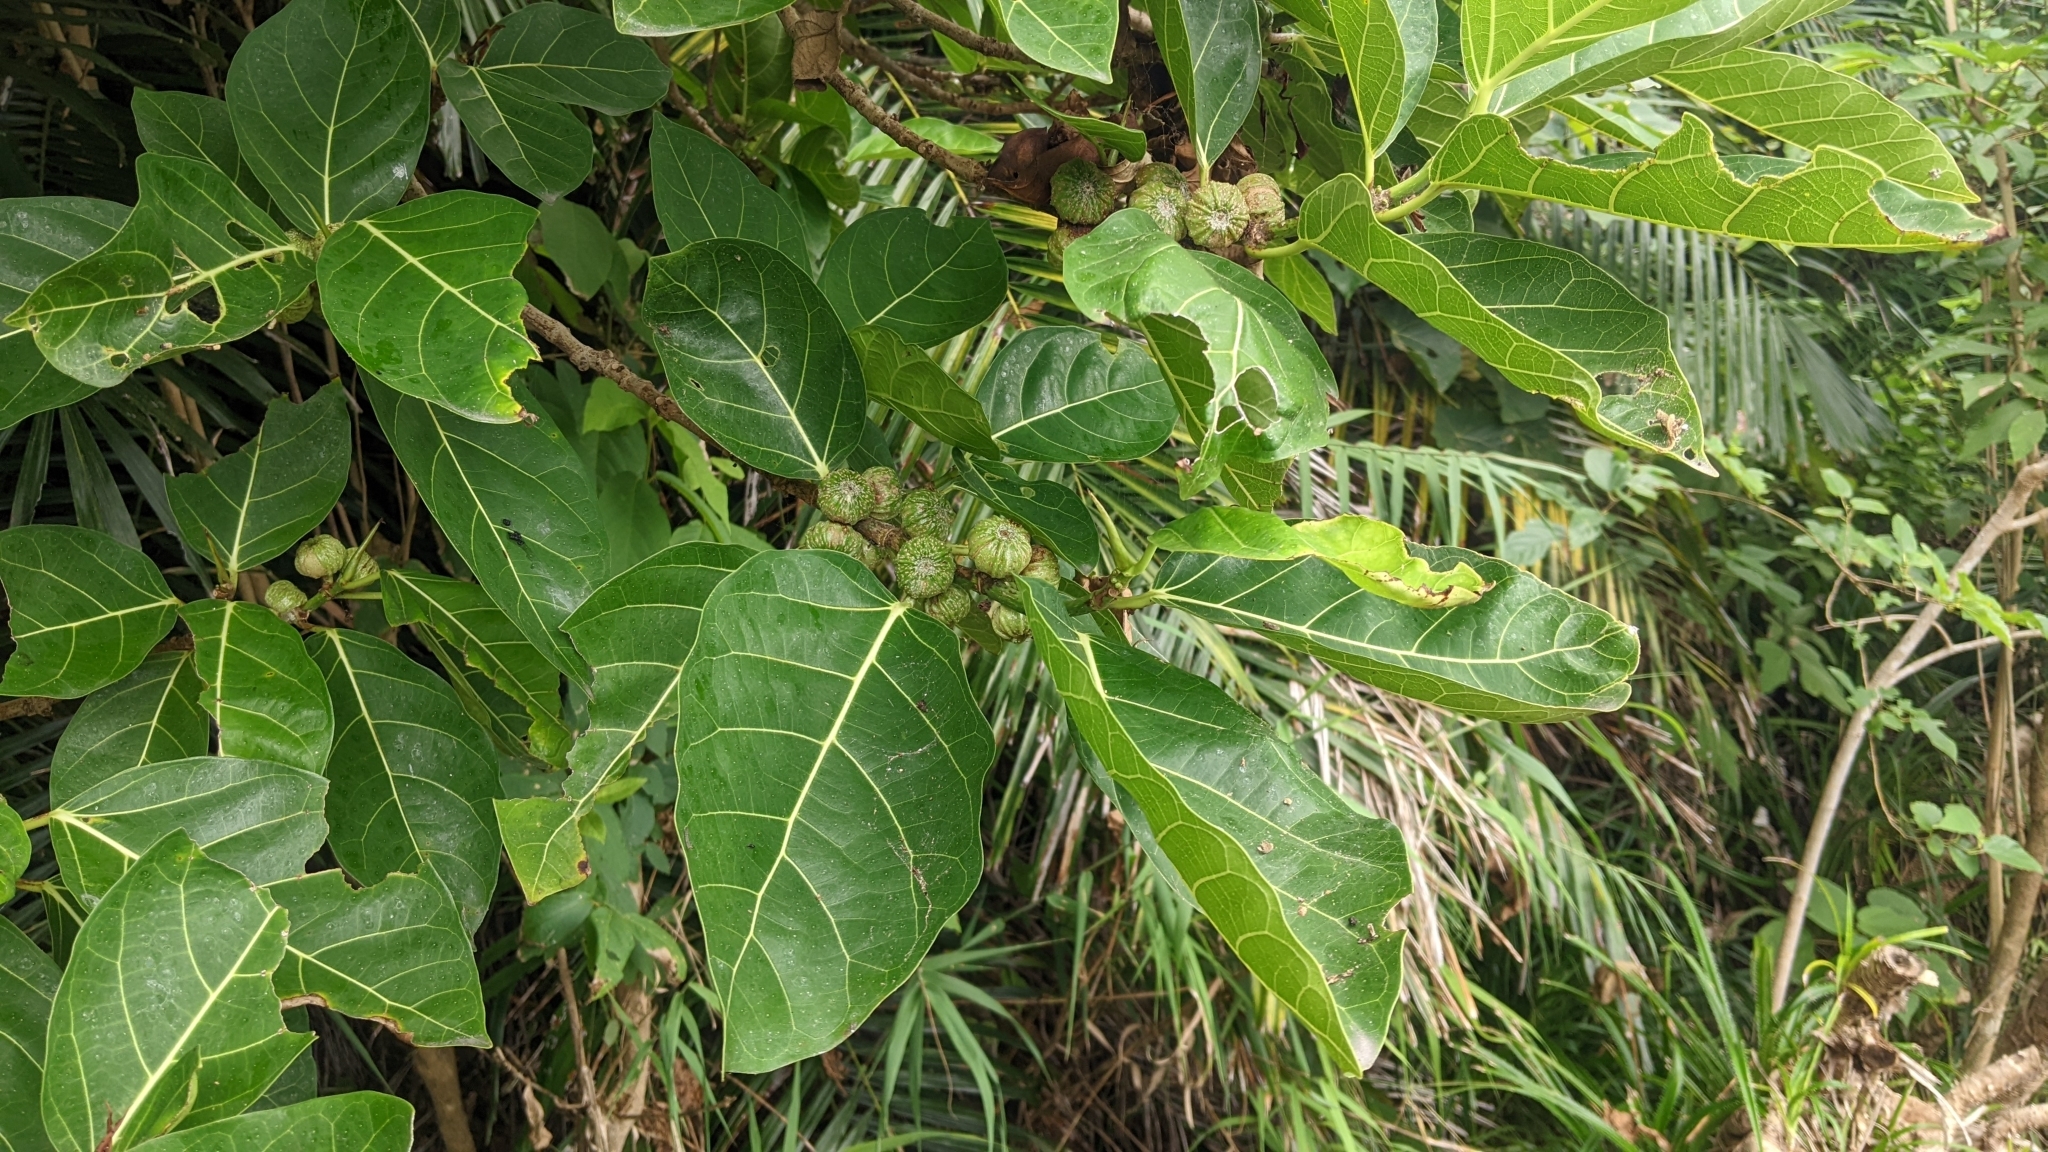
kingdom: Plantae
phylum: Tracheophyta
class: Magnoliopsida
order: Rosales
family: Moraceae
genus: Ficus
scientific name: Ficus septica
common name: Septic fig
